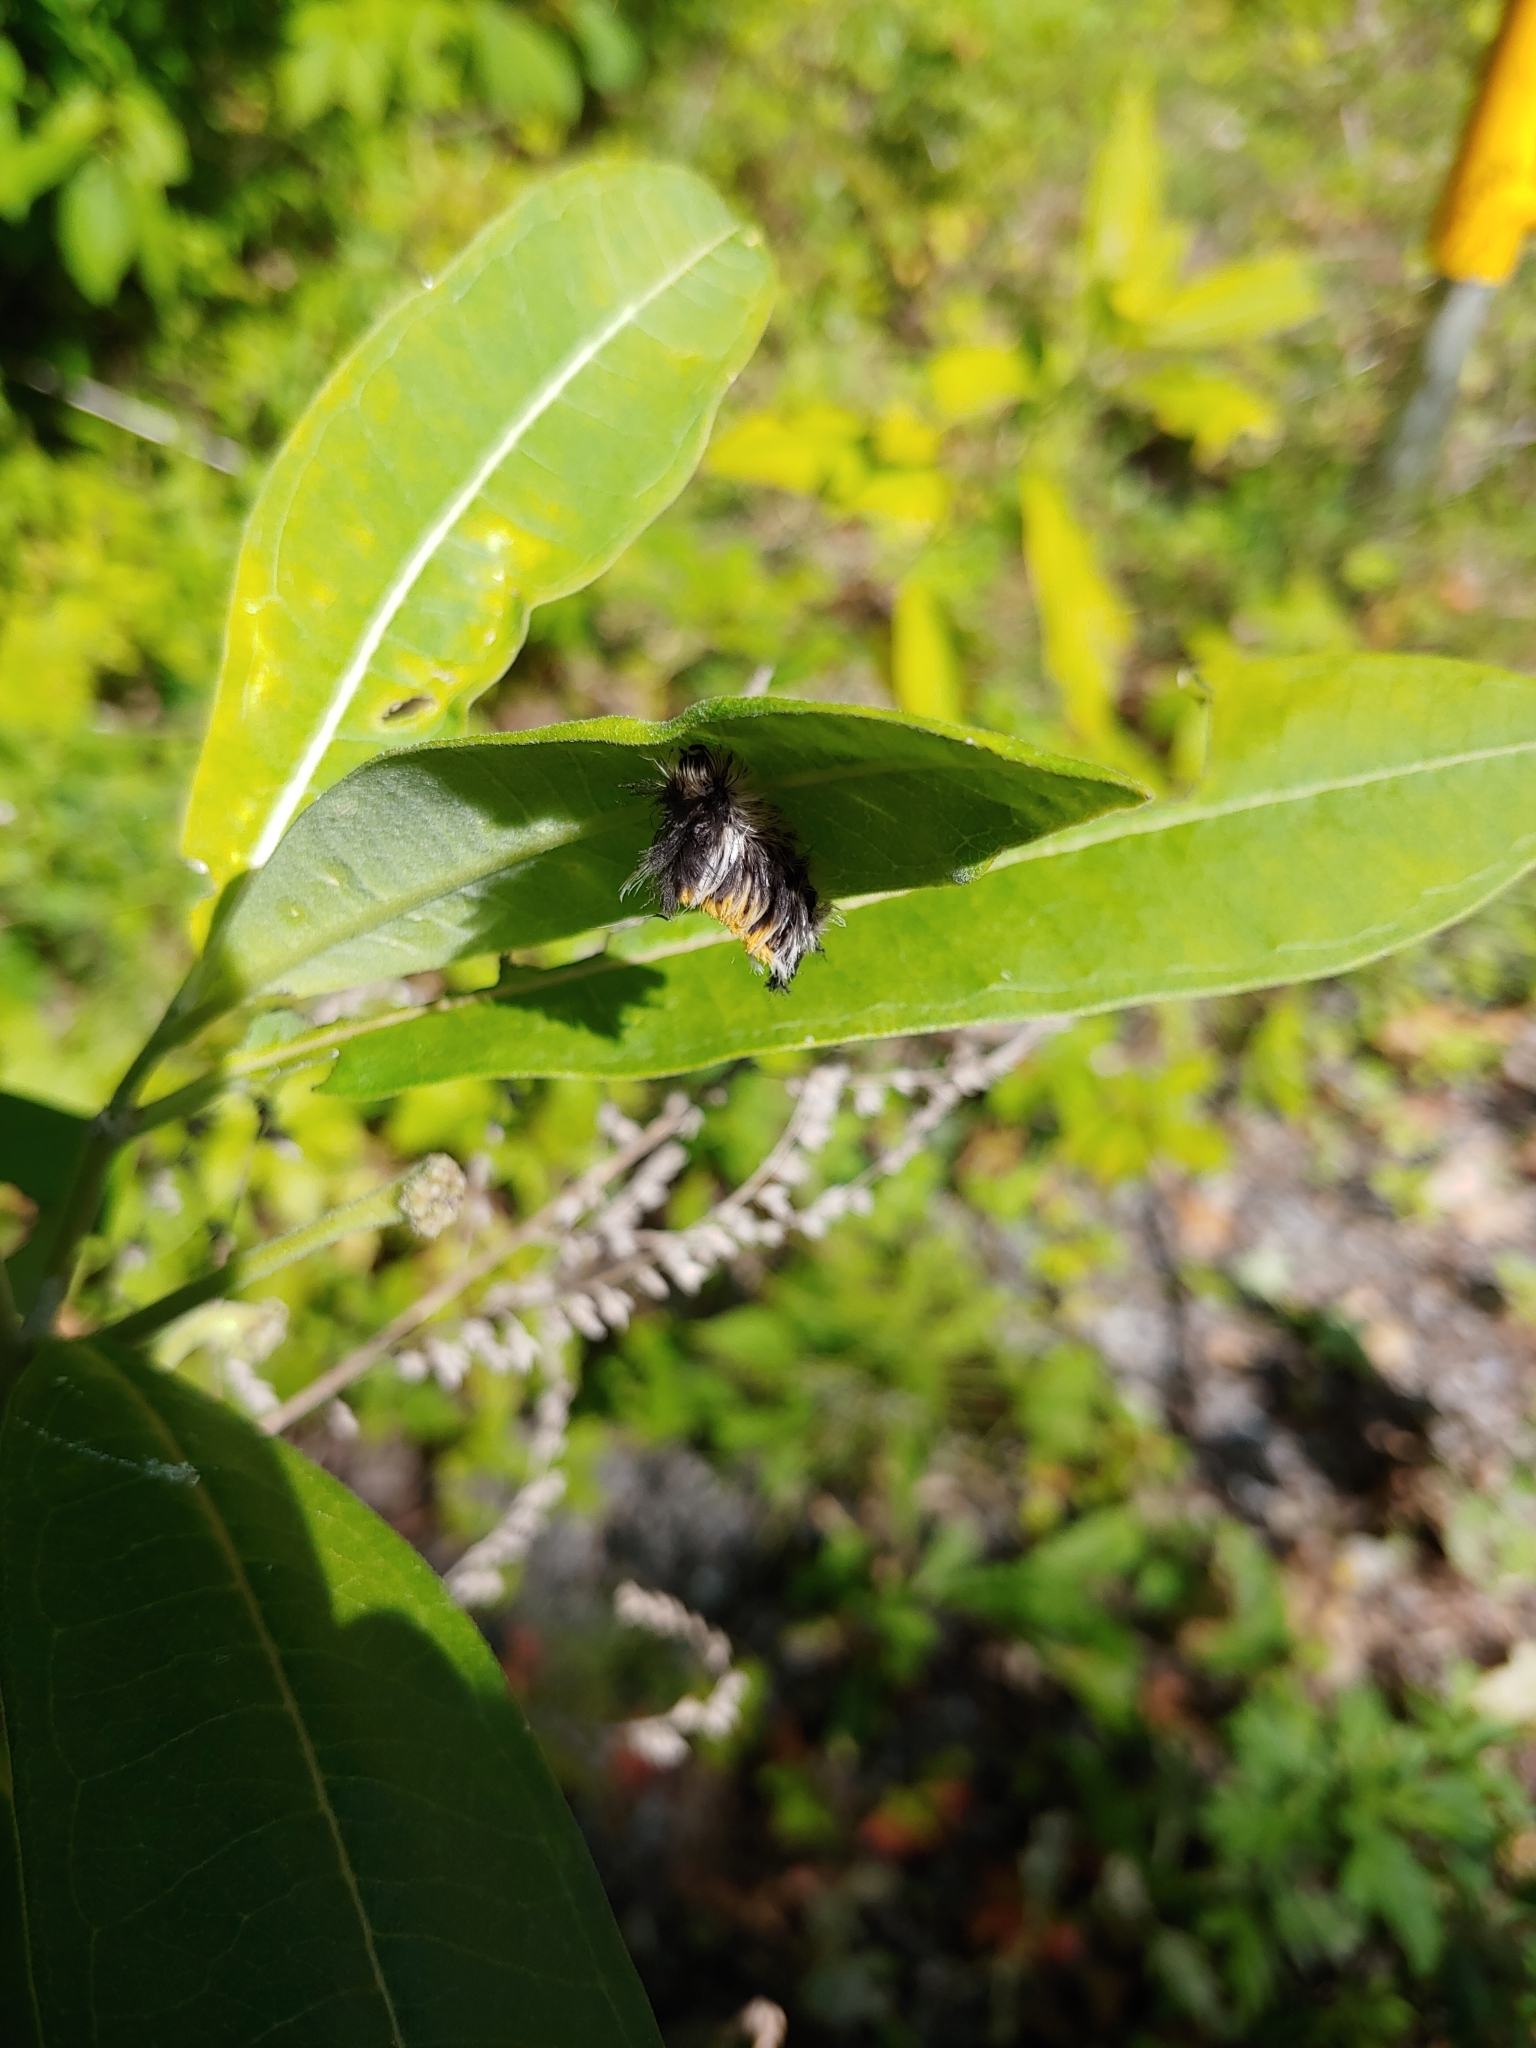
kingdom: Animalia
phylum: Arthropoda
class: Insecta
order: Lepidoptera
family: Erebidae
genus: Euchaetes
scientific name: Euchaetes egle
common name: Milkweed tussock moth
